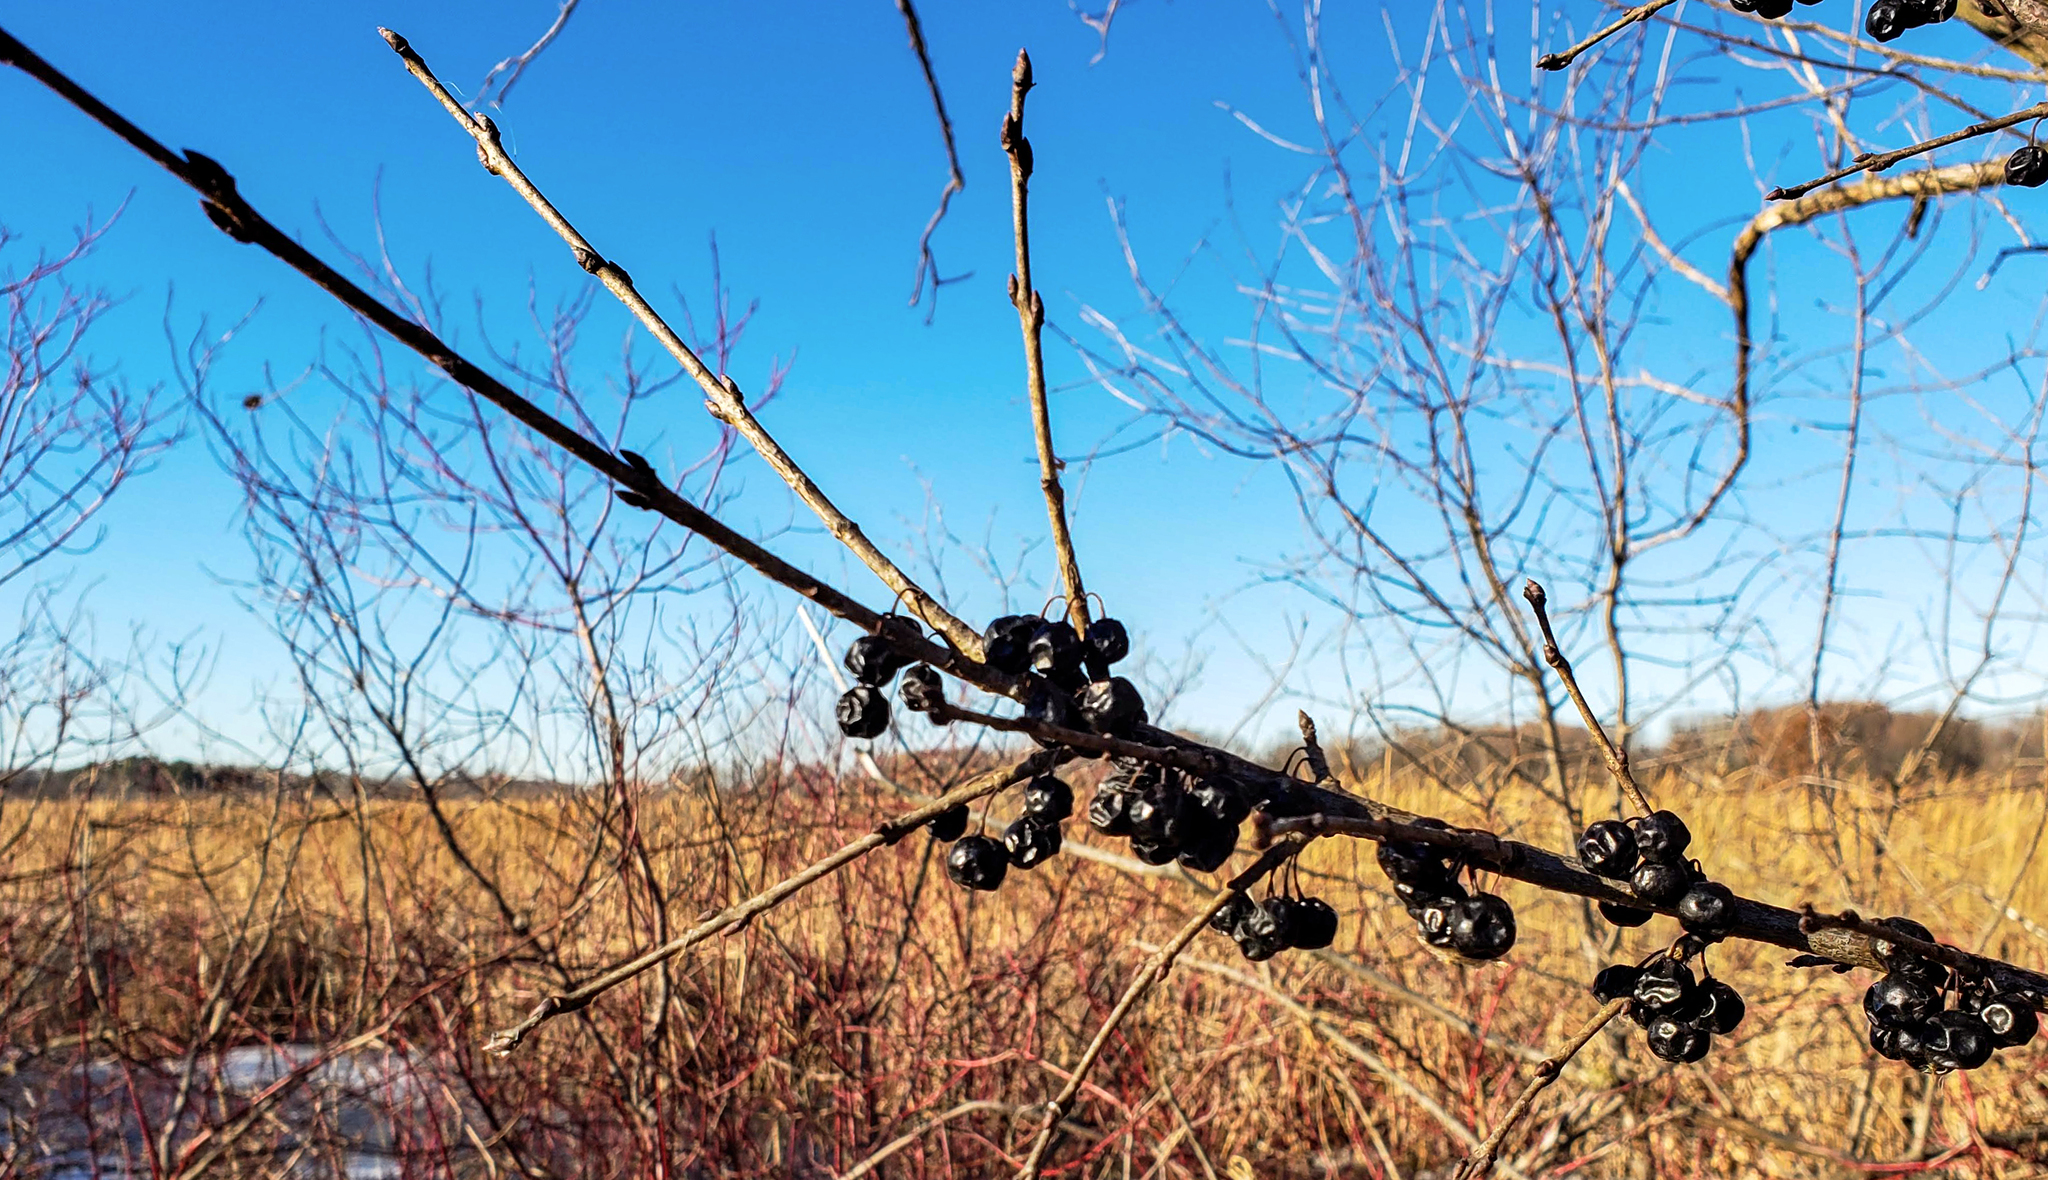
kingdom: Plantae
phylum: Tracheophyta
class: Magnoliopsida
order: Rosales
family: Rhamnaceae
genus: Rhamnus
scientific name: Rhamnus cathartica
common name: Common buckthorn
